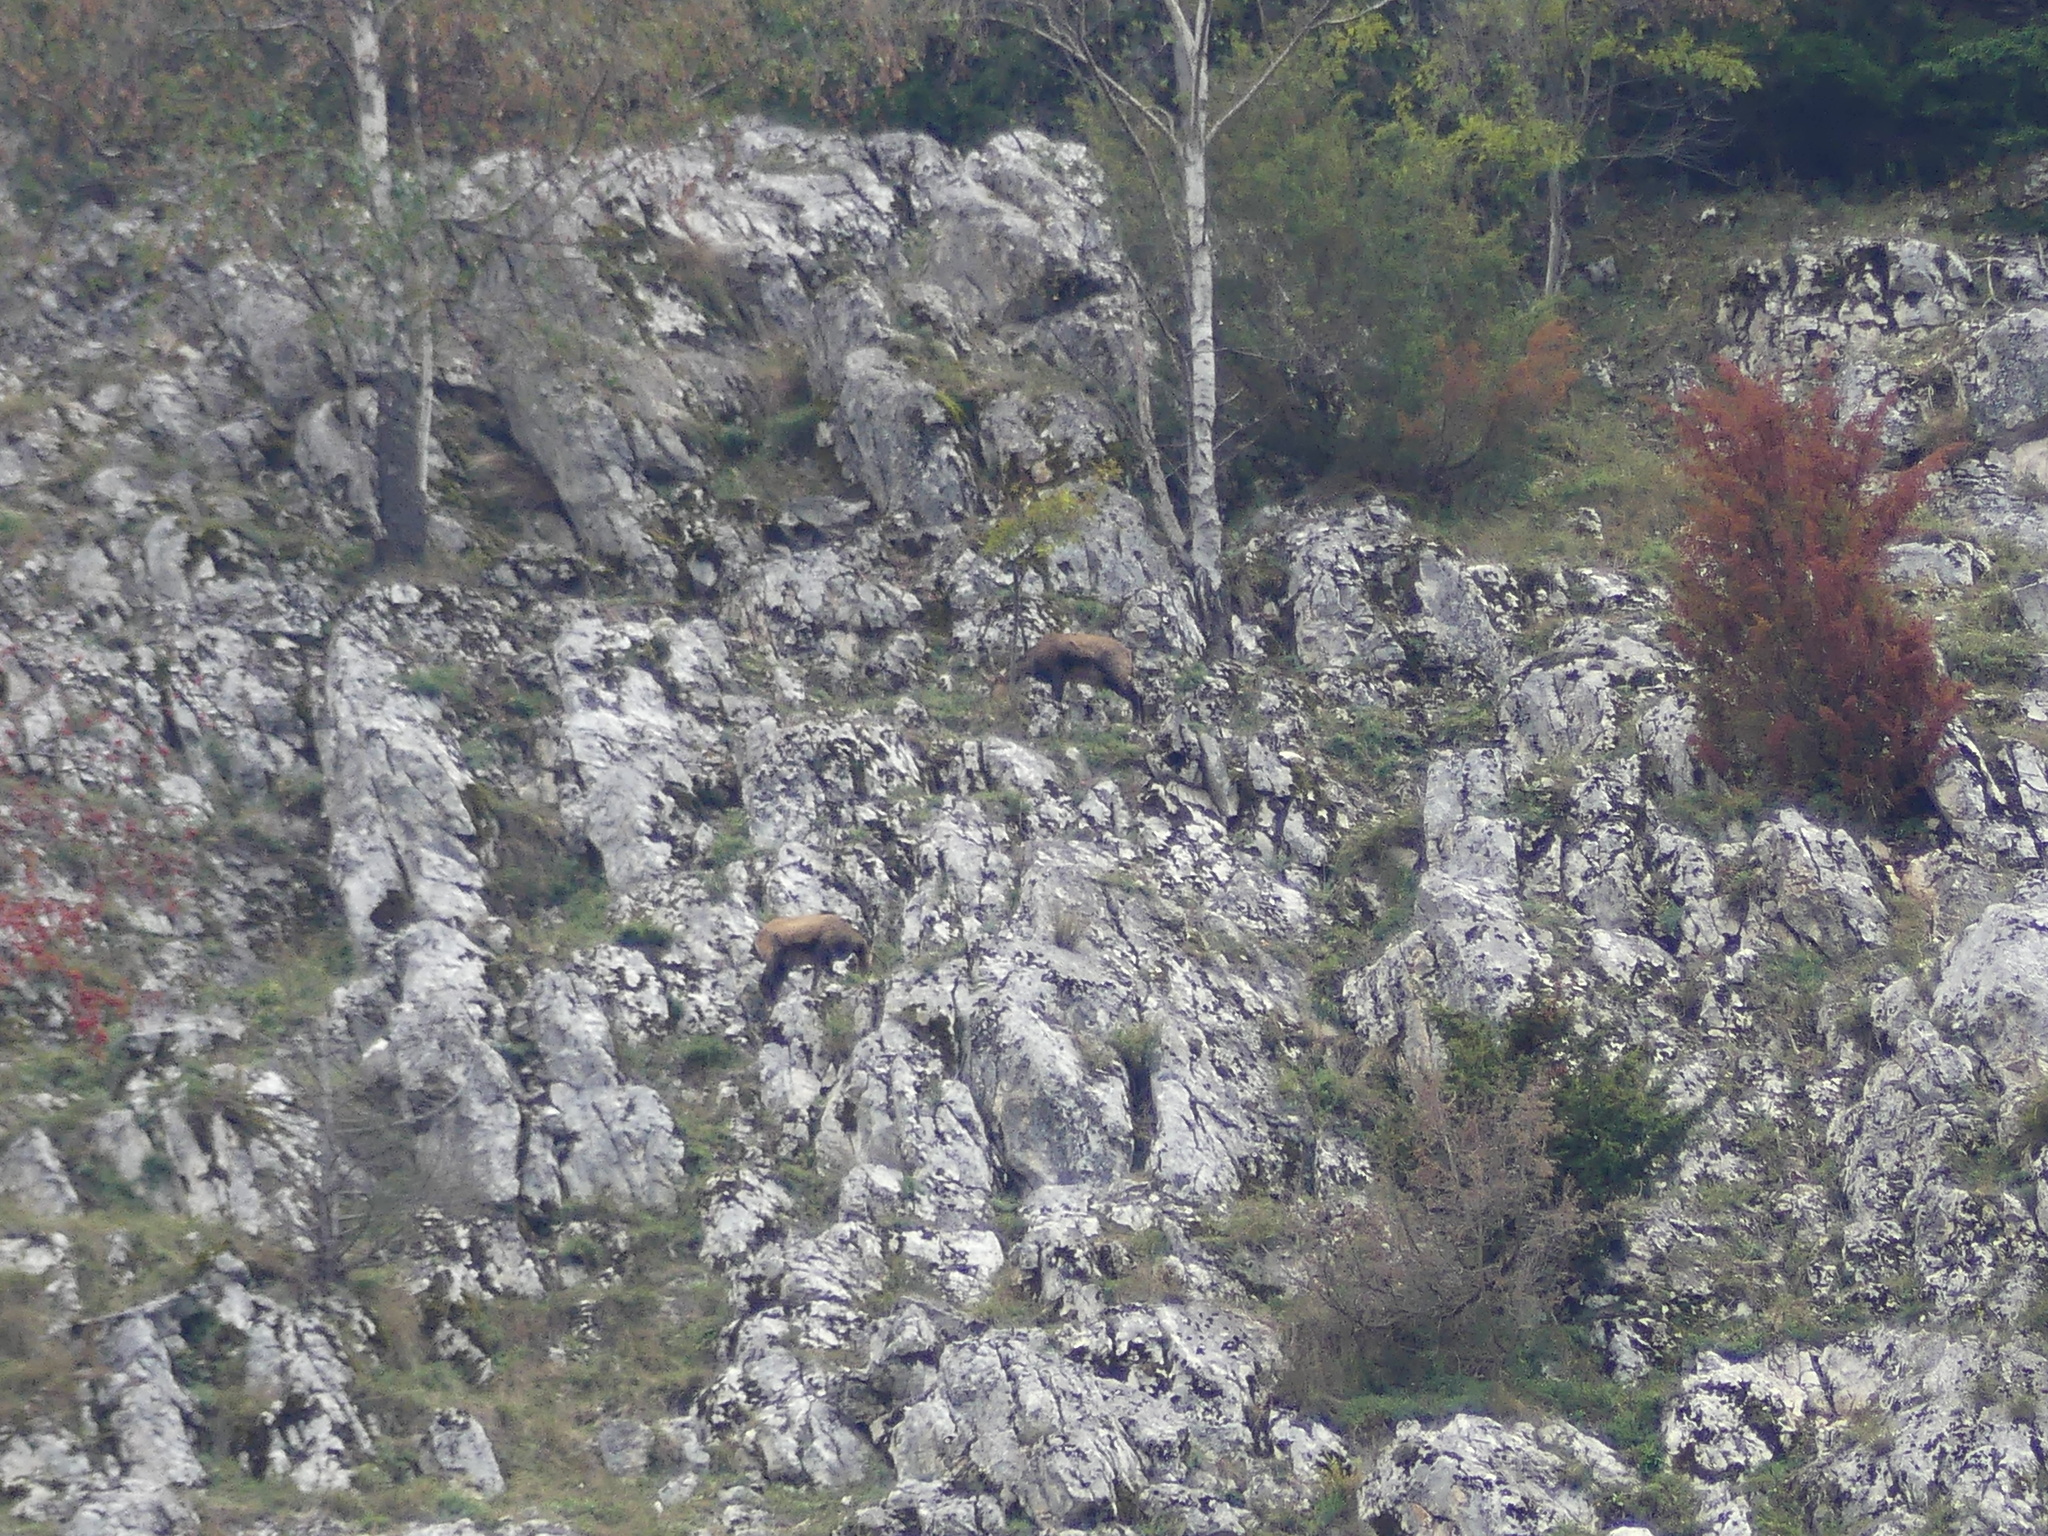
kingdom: Animalia
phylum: Chordata
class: Mammalia
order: Artiodactyla
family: Bovidae
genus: Rupicapra
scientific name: Rupicapra rupicapra
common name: Chamois
